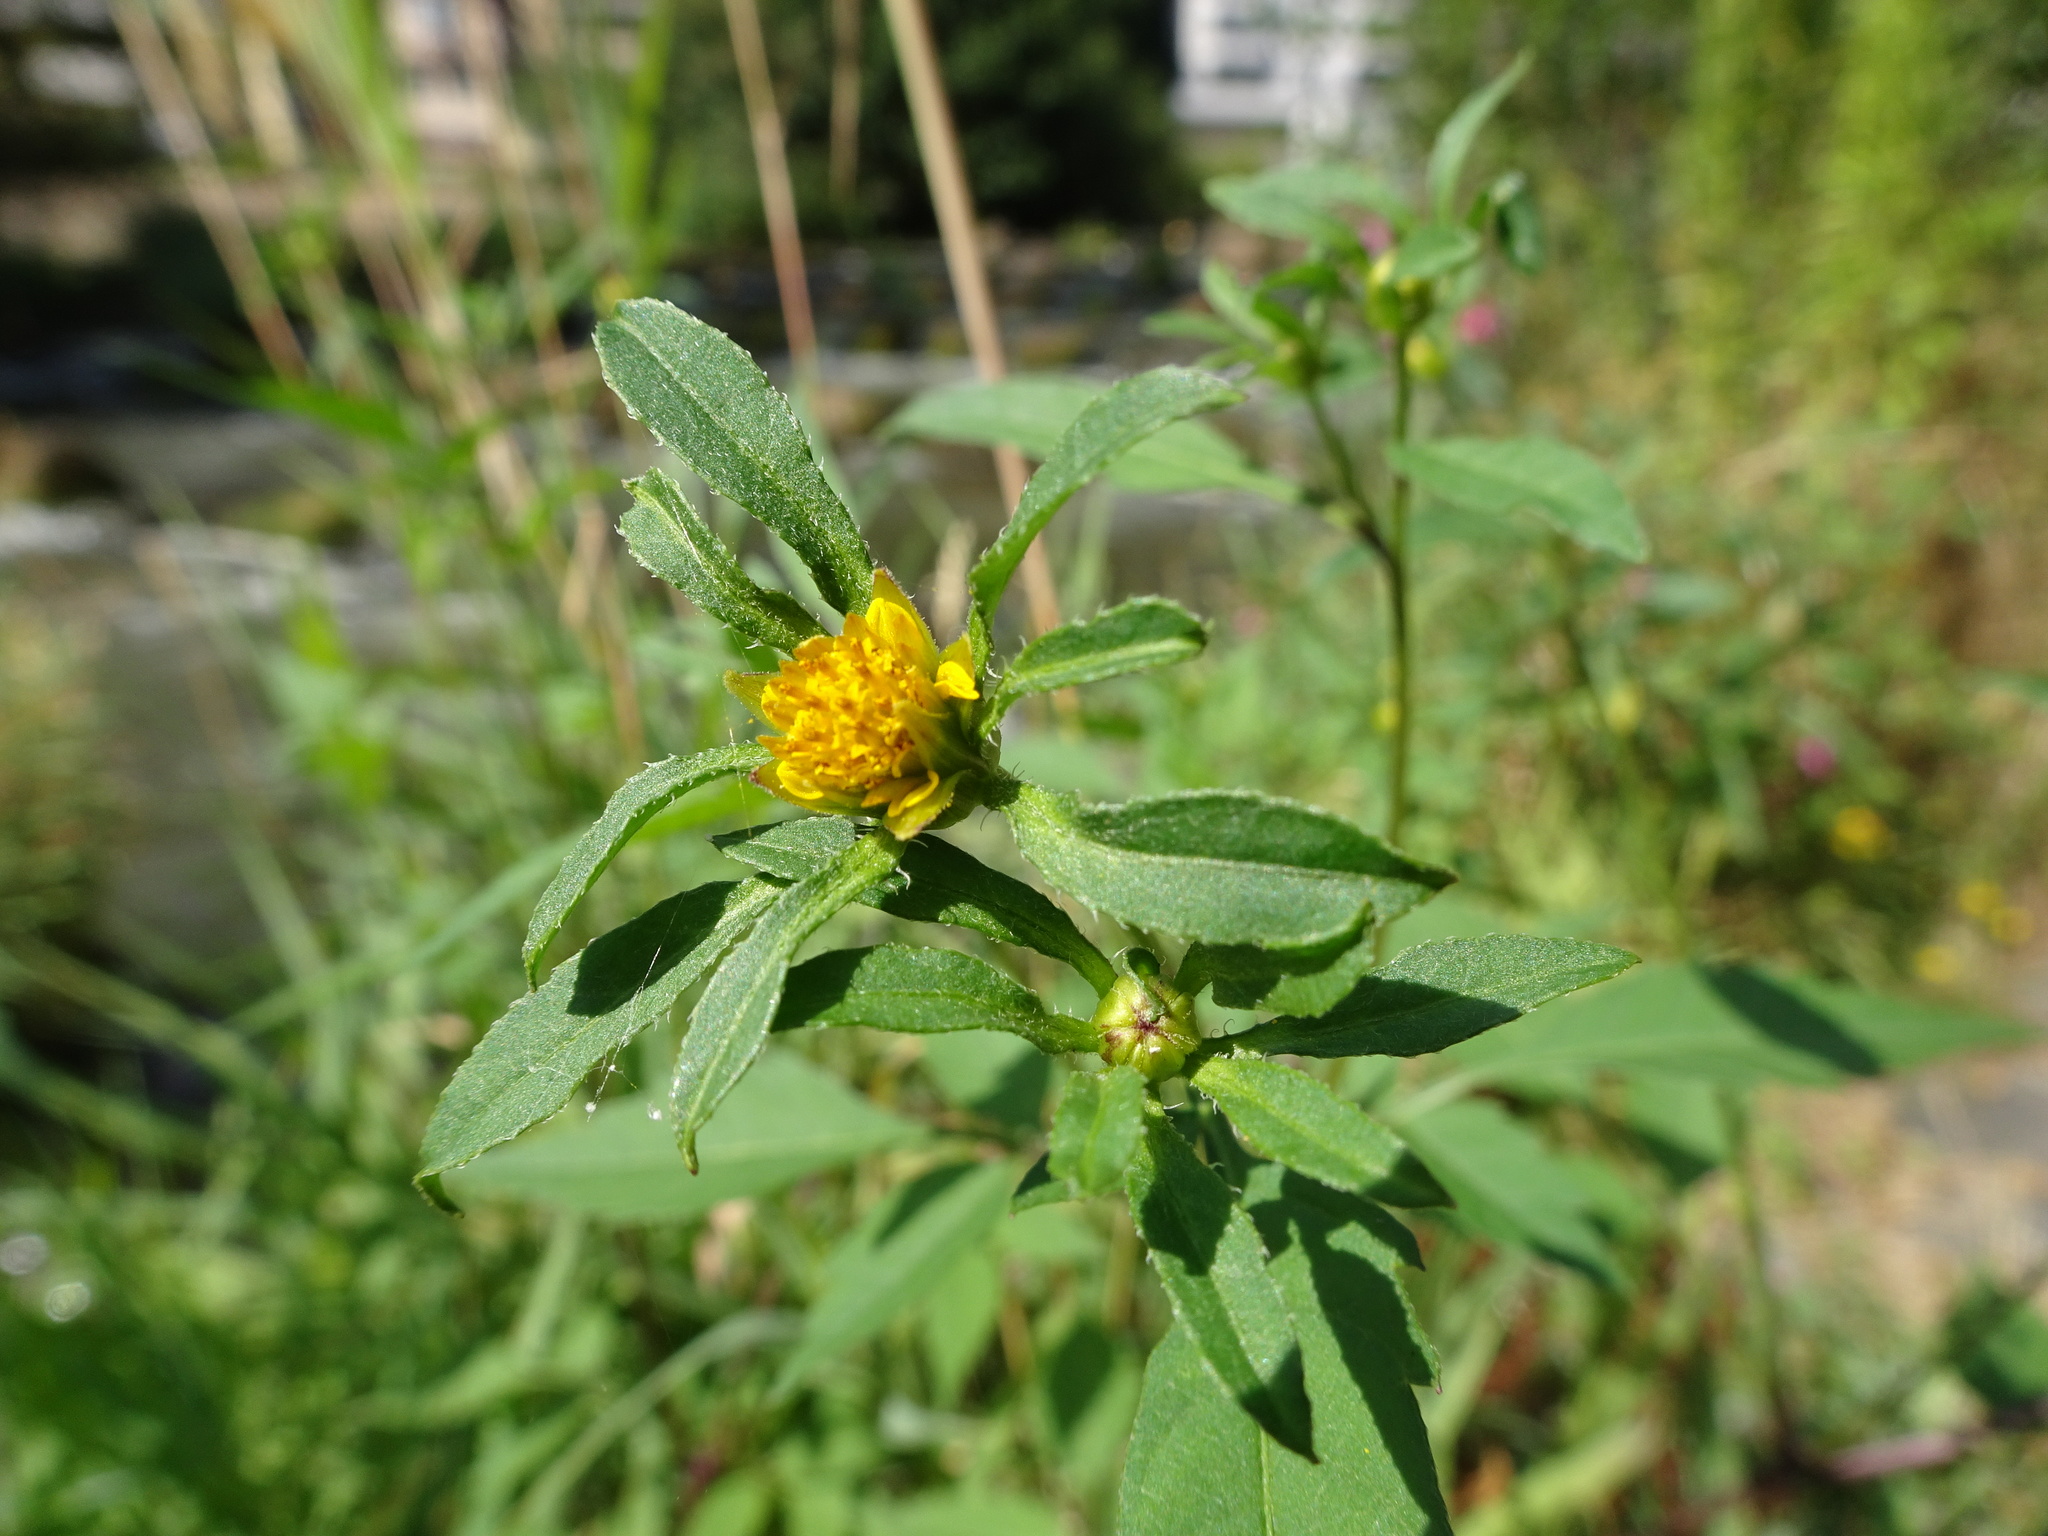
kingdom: Plantae
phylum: Tracheophyta
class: Magnoliopsida
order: Asterales
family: Asteraceae
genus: Bidens
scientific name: Bidens frondosa
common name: Beggarticks
